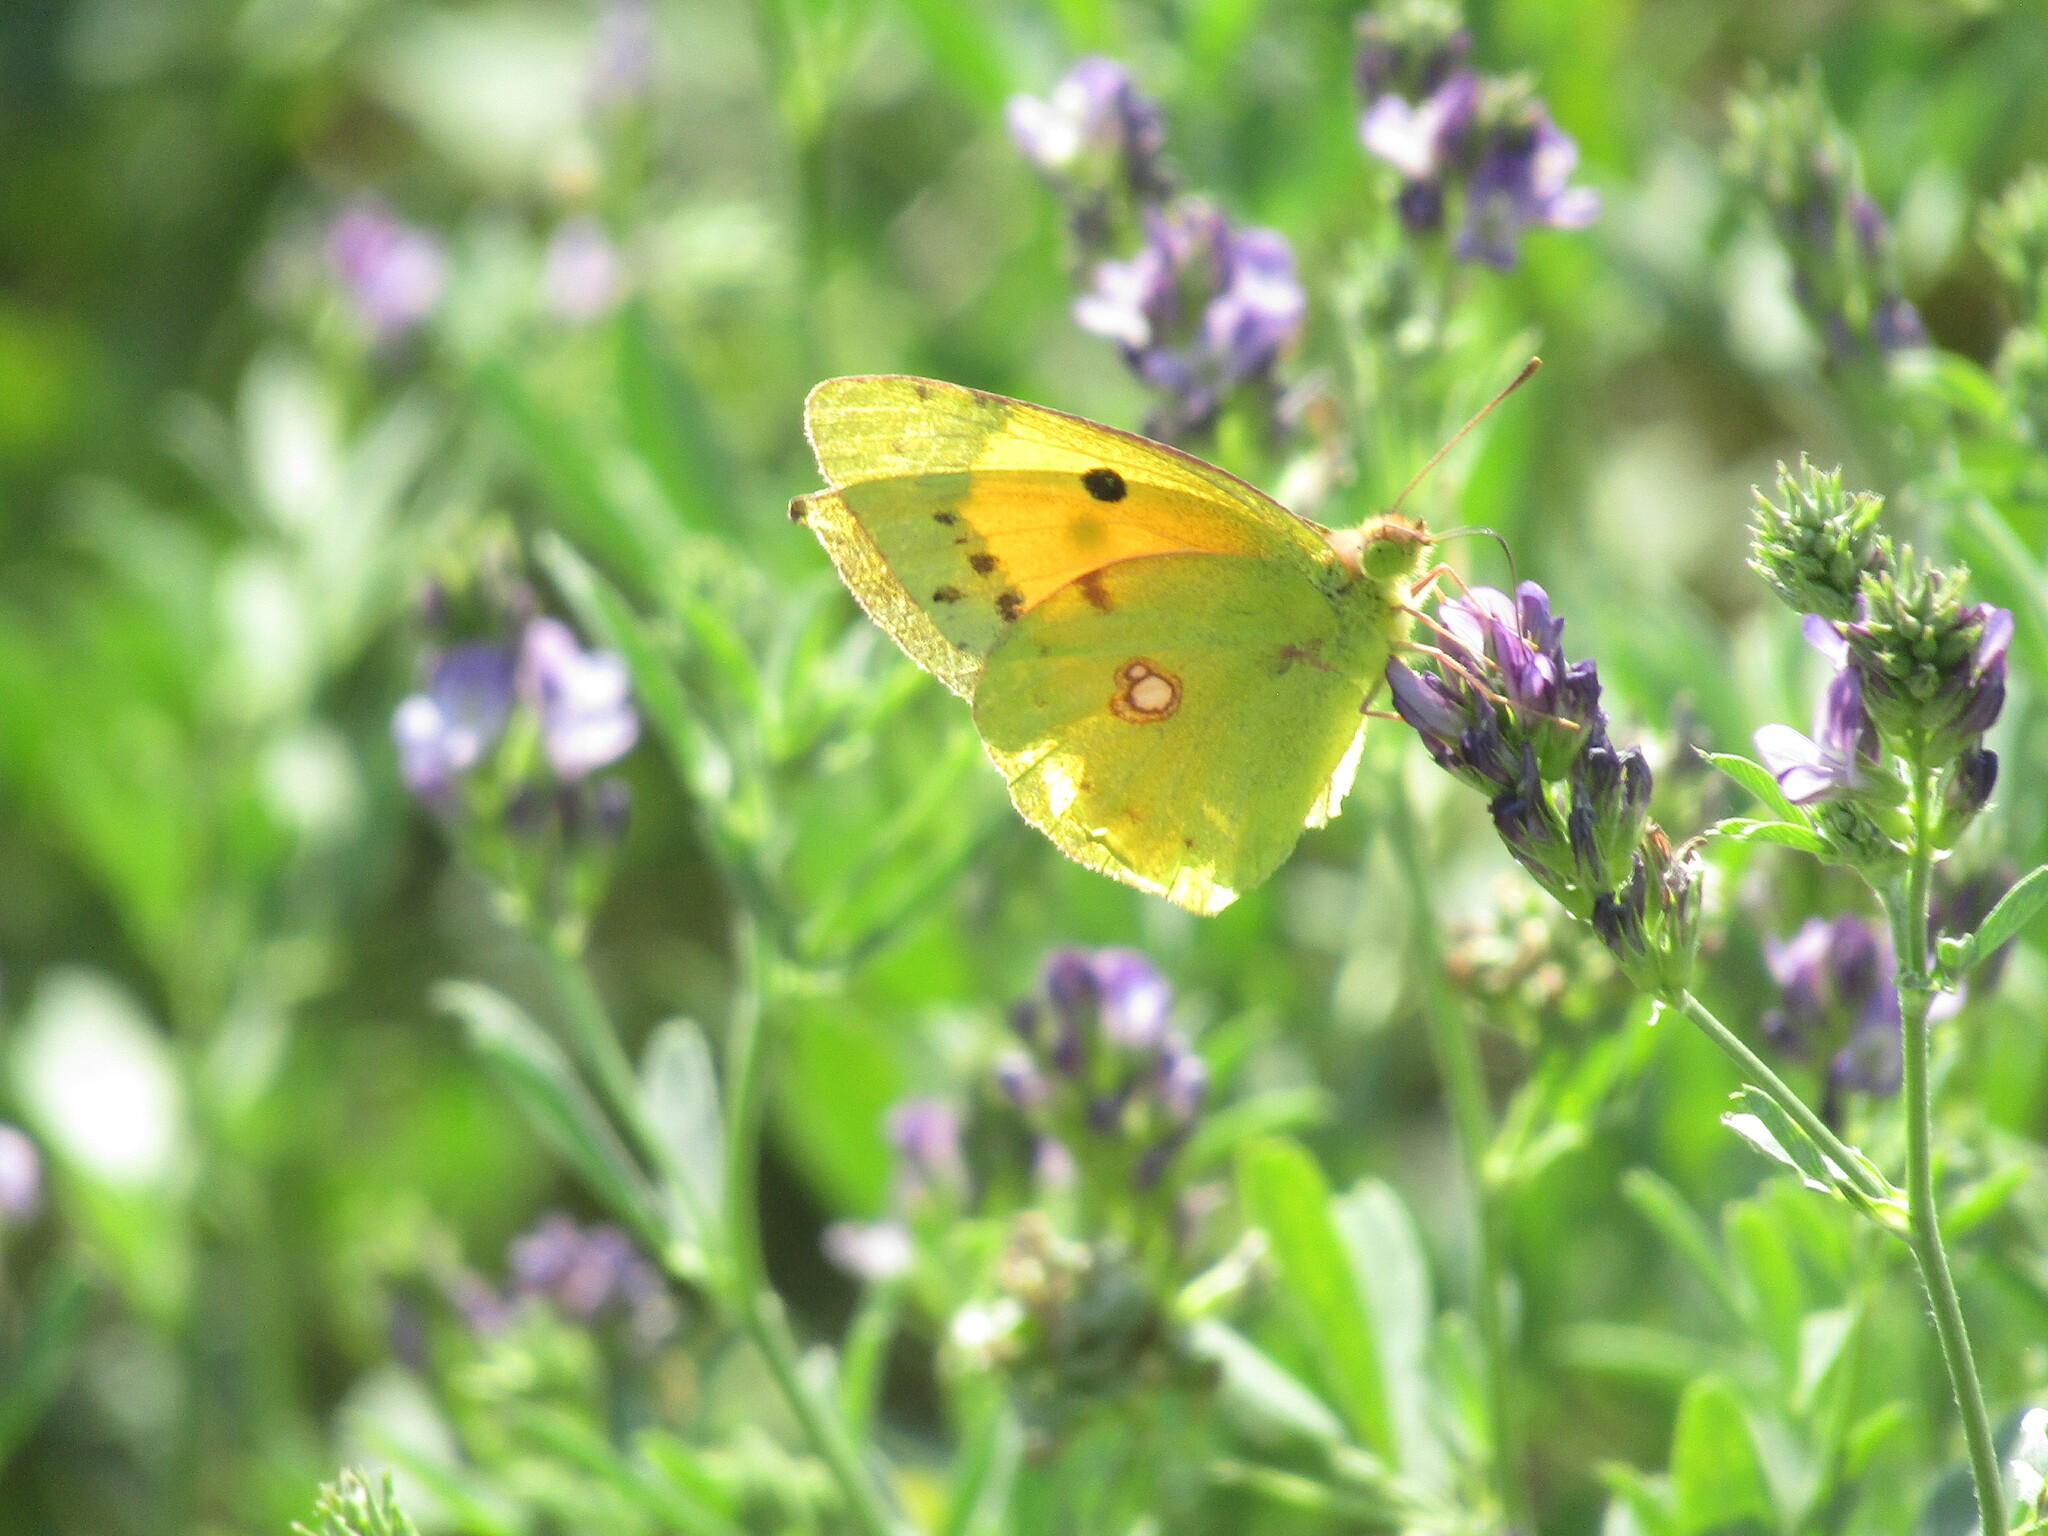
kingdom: Animalia
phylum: Arthropoda
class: Insecta
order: Lepidoptera
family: Pieridae
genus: Colias
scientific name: Colias croceus
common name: Clouded yellow
